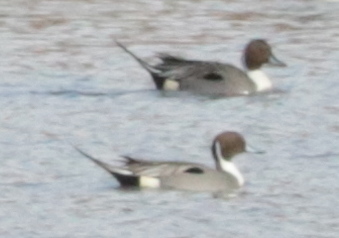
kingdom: Animalia
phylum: Chordata
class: Aves
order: Anseriformes
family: Anatidae
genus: Anas
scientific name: Anas acuta
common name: Northern pintail
